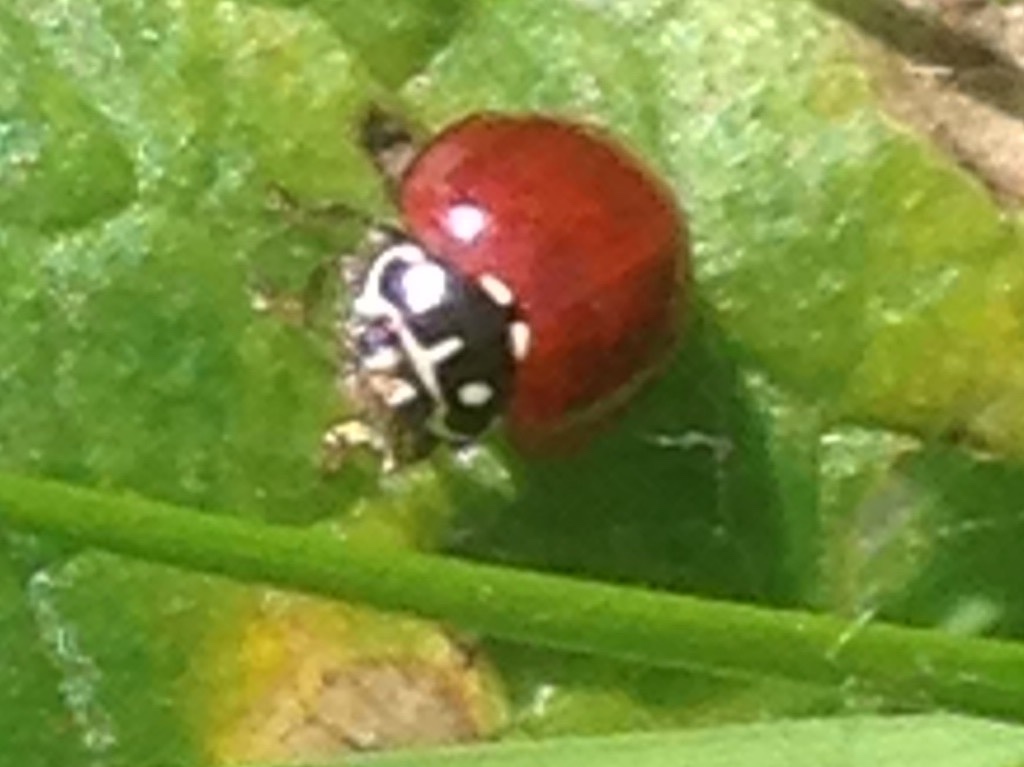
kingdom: Animalia
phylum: Arthropoda
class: Insecta
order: Coleoptera
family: Coccinellidae
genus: Cycloneda
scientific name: Cycloneda sanguinea
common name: Ladybird beetle
